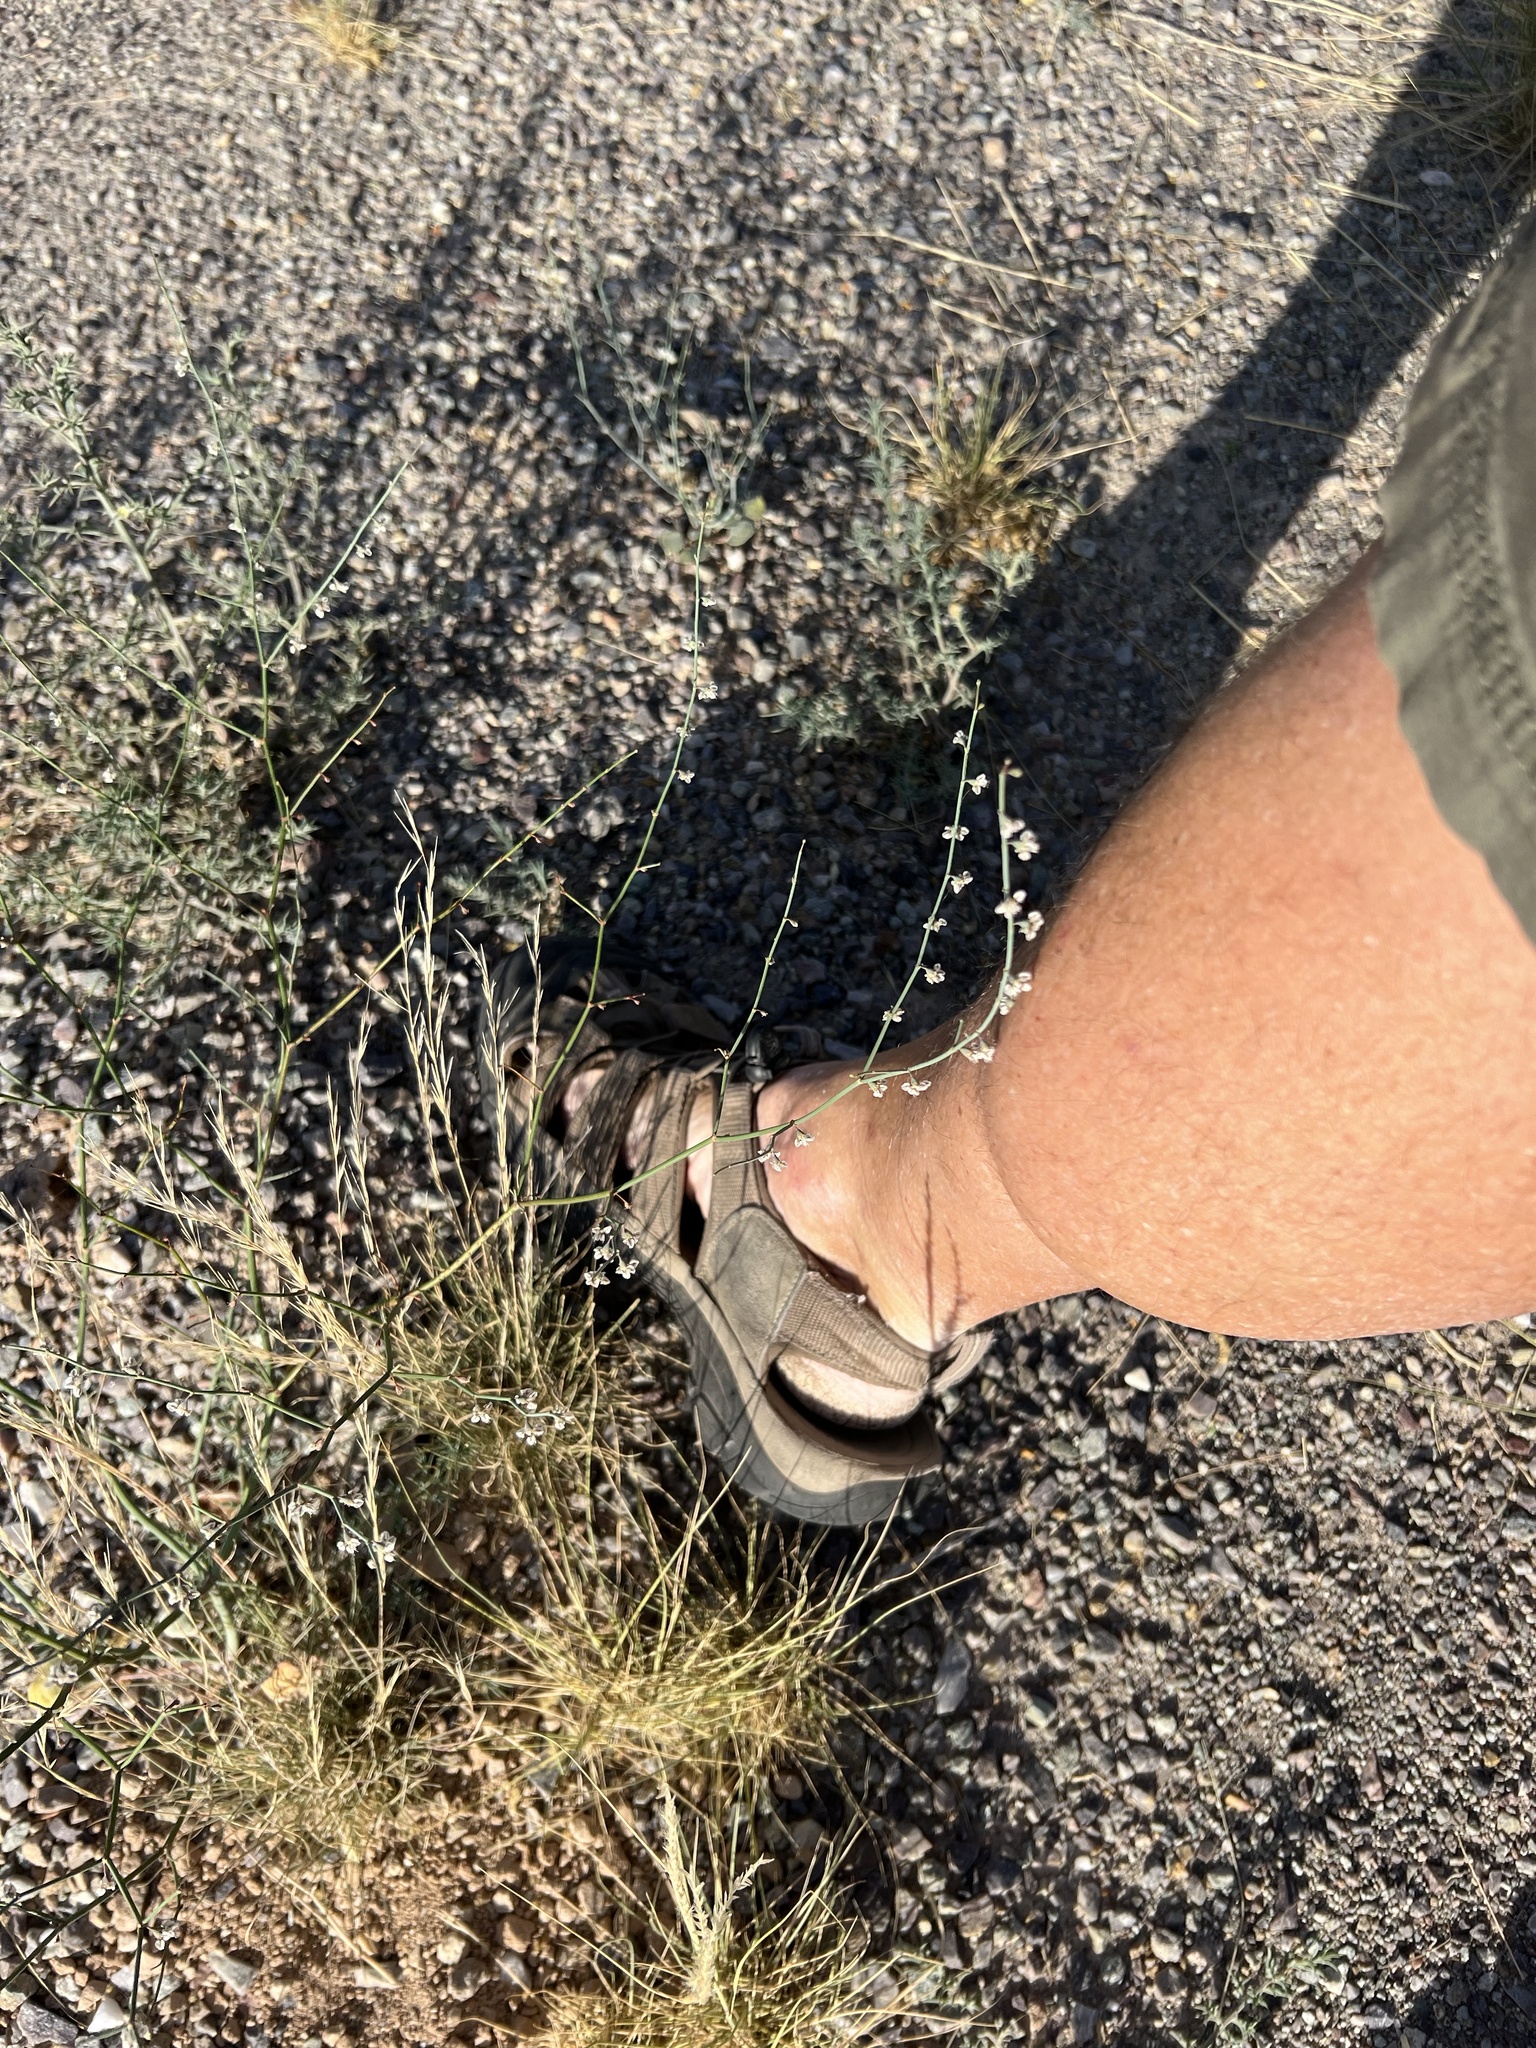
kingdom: Plantae
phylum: Tracheophyta
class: Magnoliopsida
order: Caryophyllales
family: Polygonaceae
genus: Eriogonum
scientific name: Eriogonum deflexum
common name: Skeleton-weed
